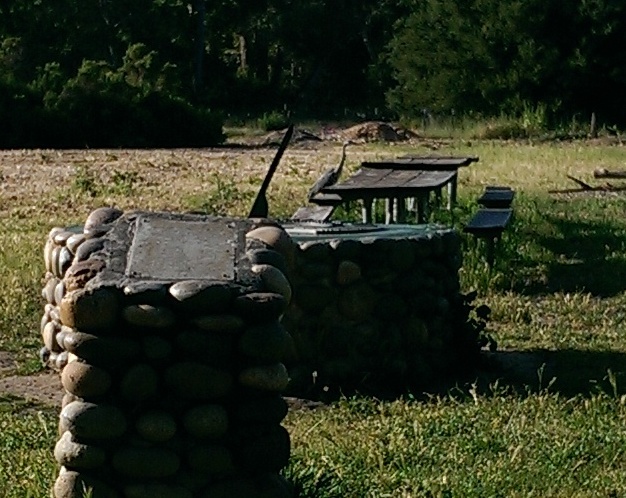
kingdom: Animalia
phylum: Chordata
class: Aves
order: Pelecaniformes
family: Ardeidae
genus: Ardea
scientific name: Ardea herodias
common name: Great blue heron
